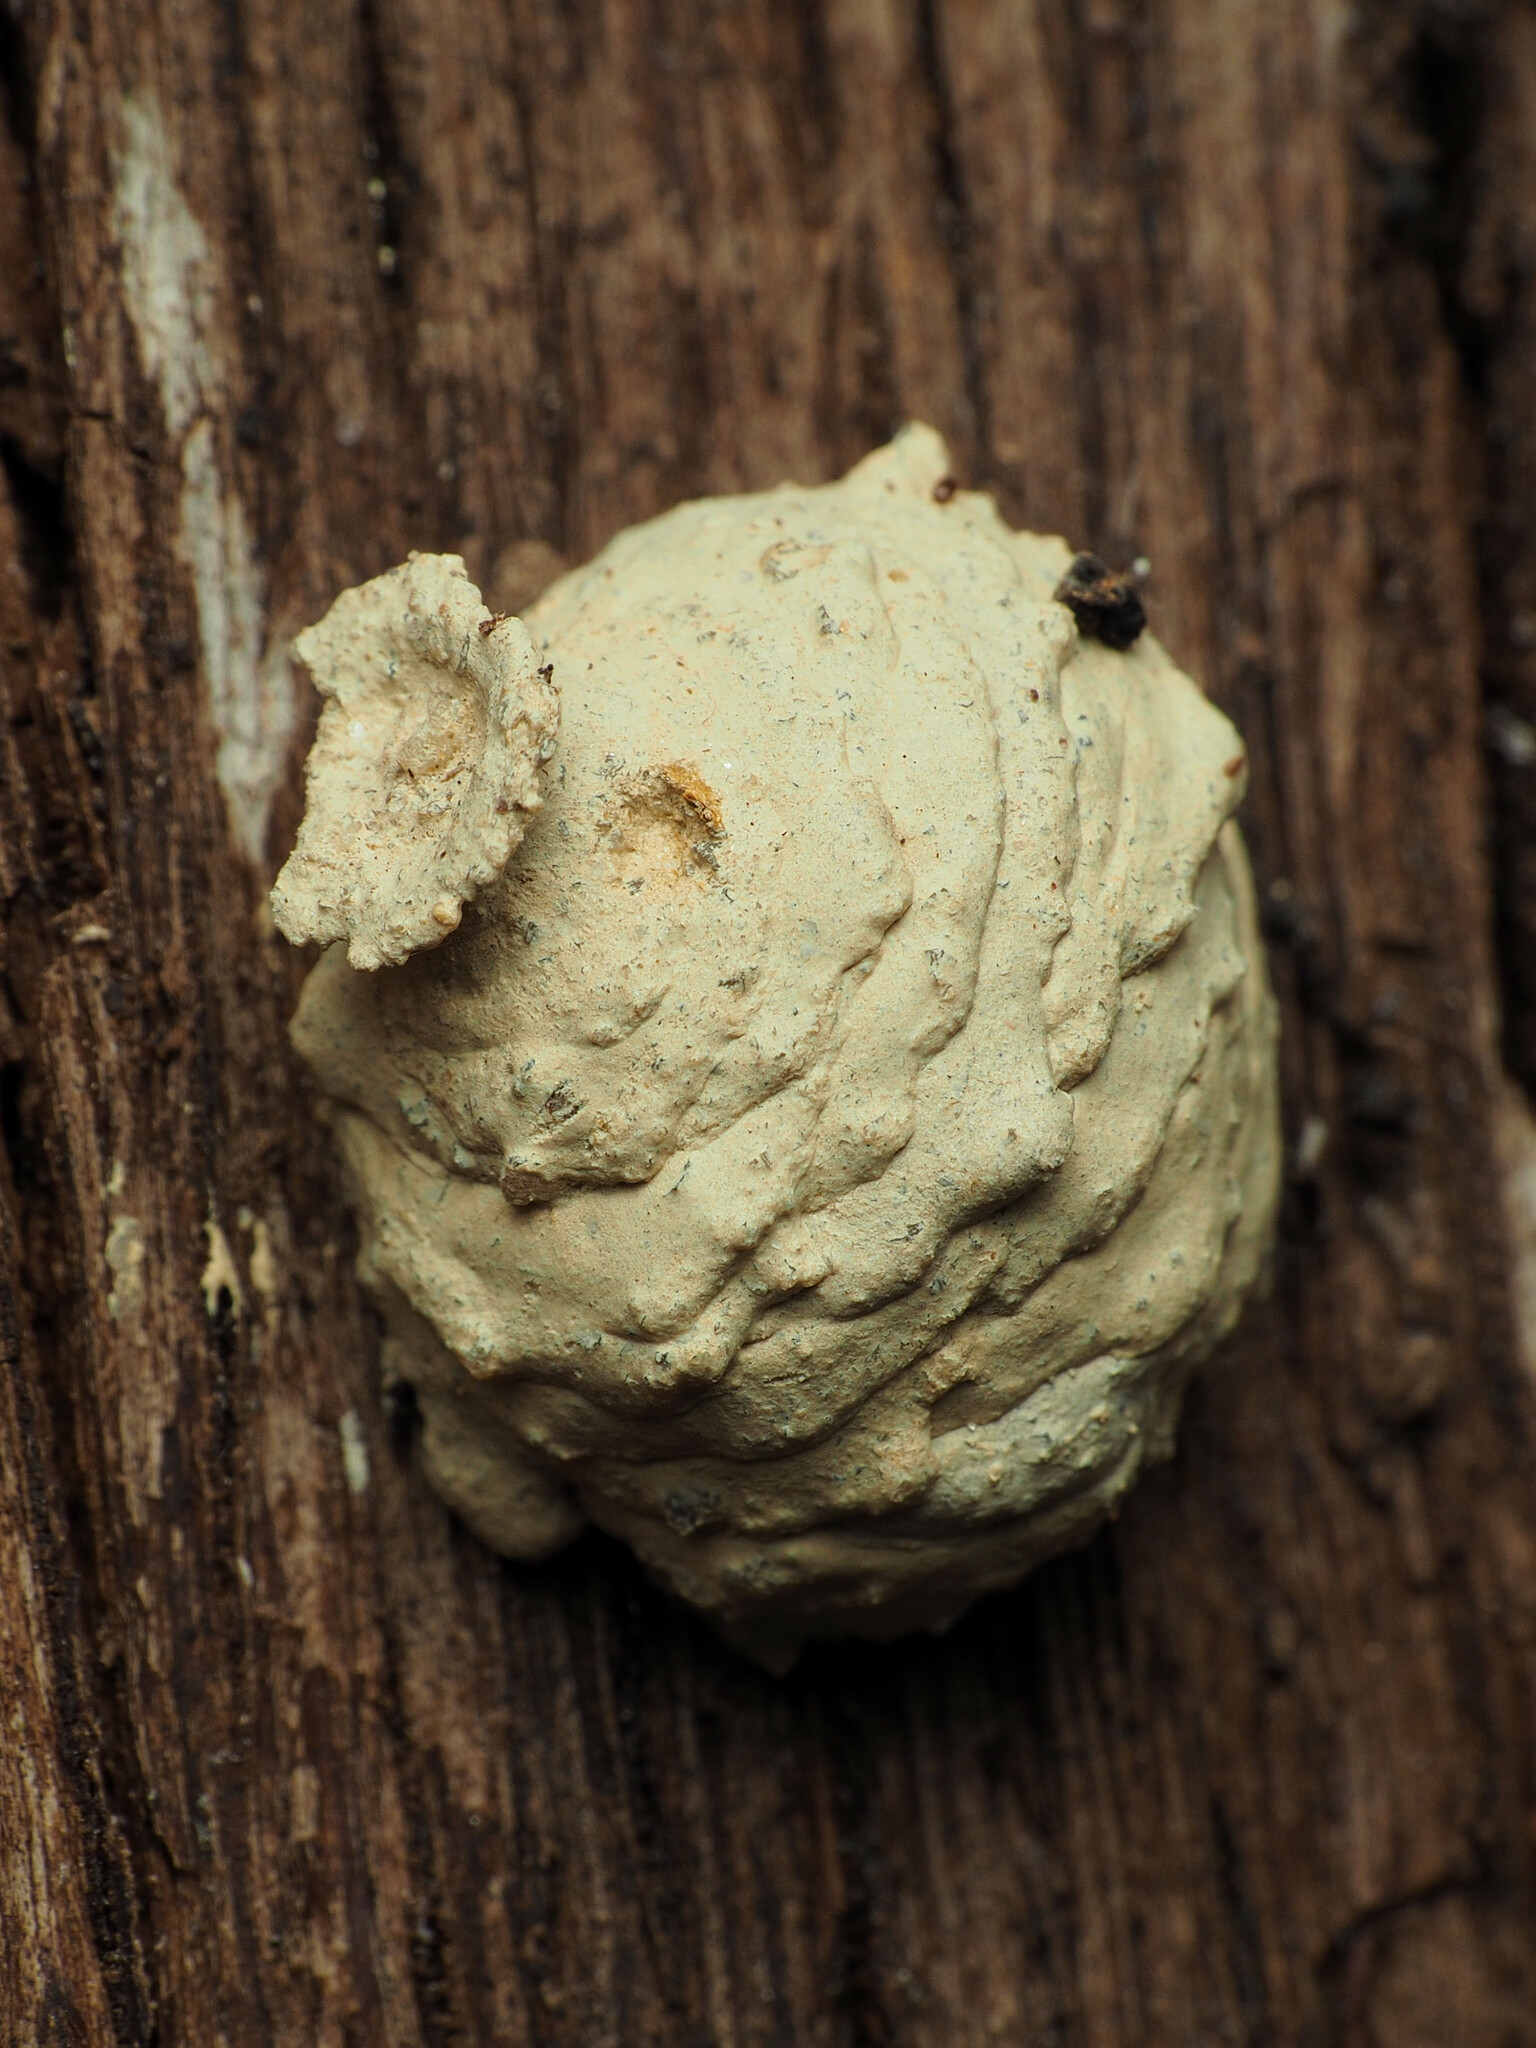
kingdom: Animalia
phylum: Arthropoda
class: Insecta
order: Hymenoptera
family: Vespidae
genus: Eumenes
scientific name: Eumenes
